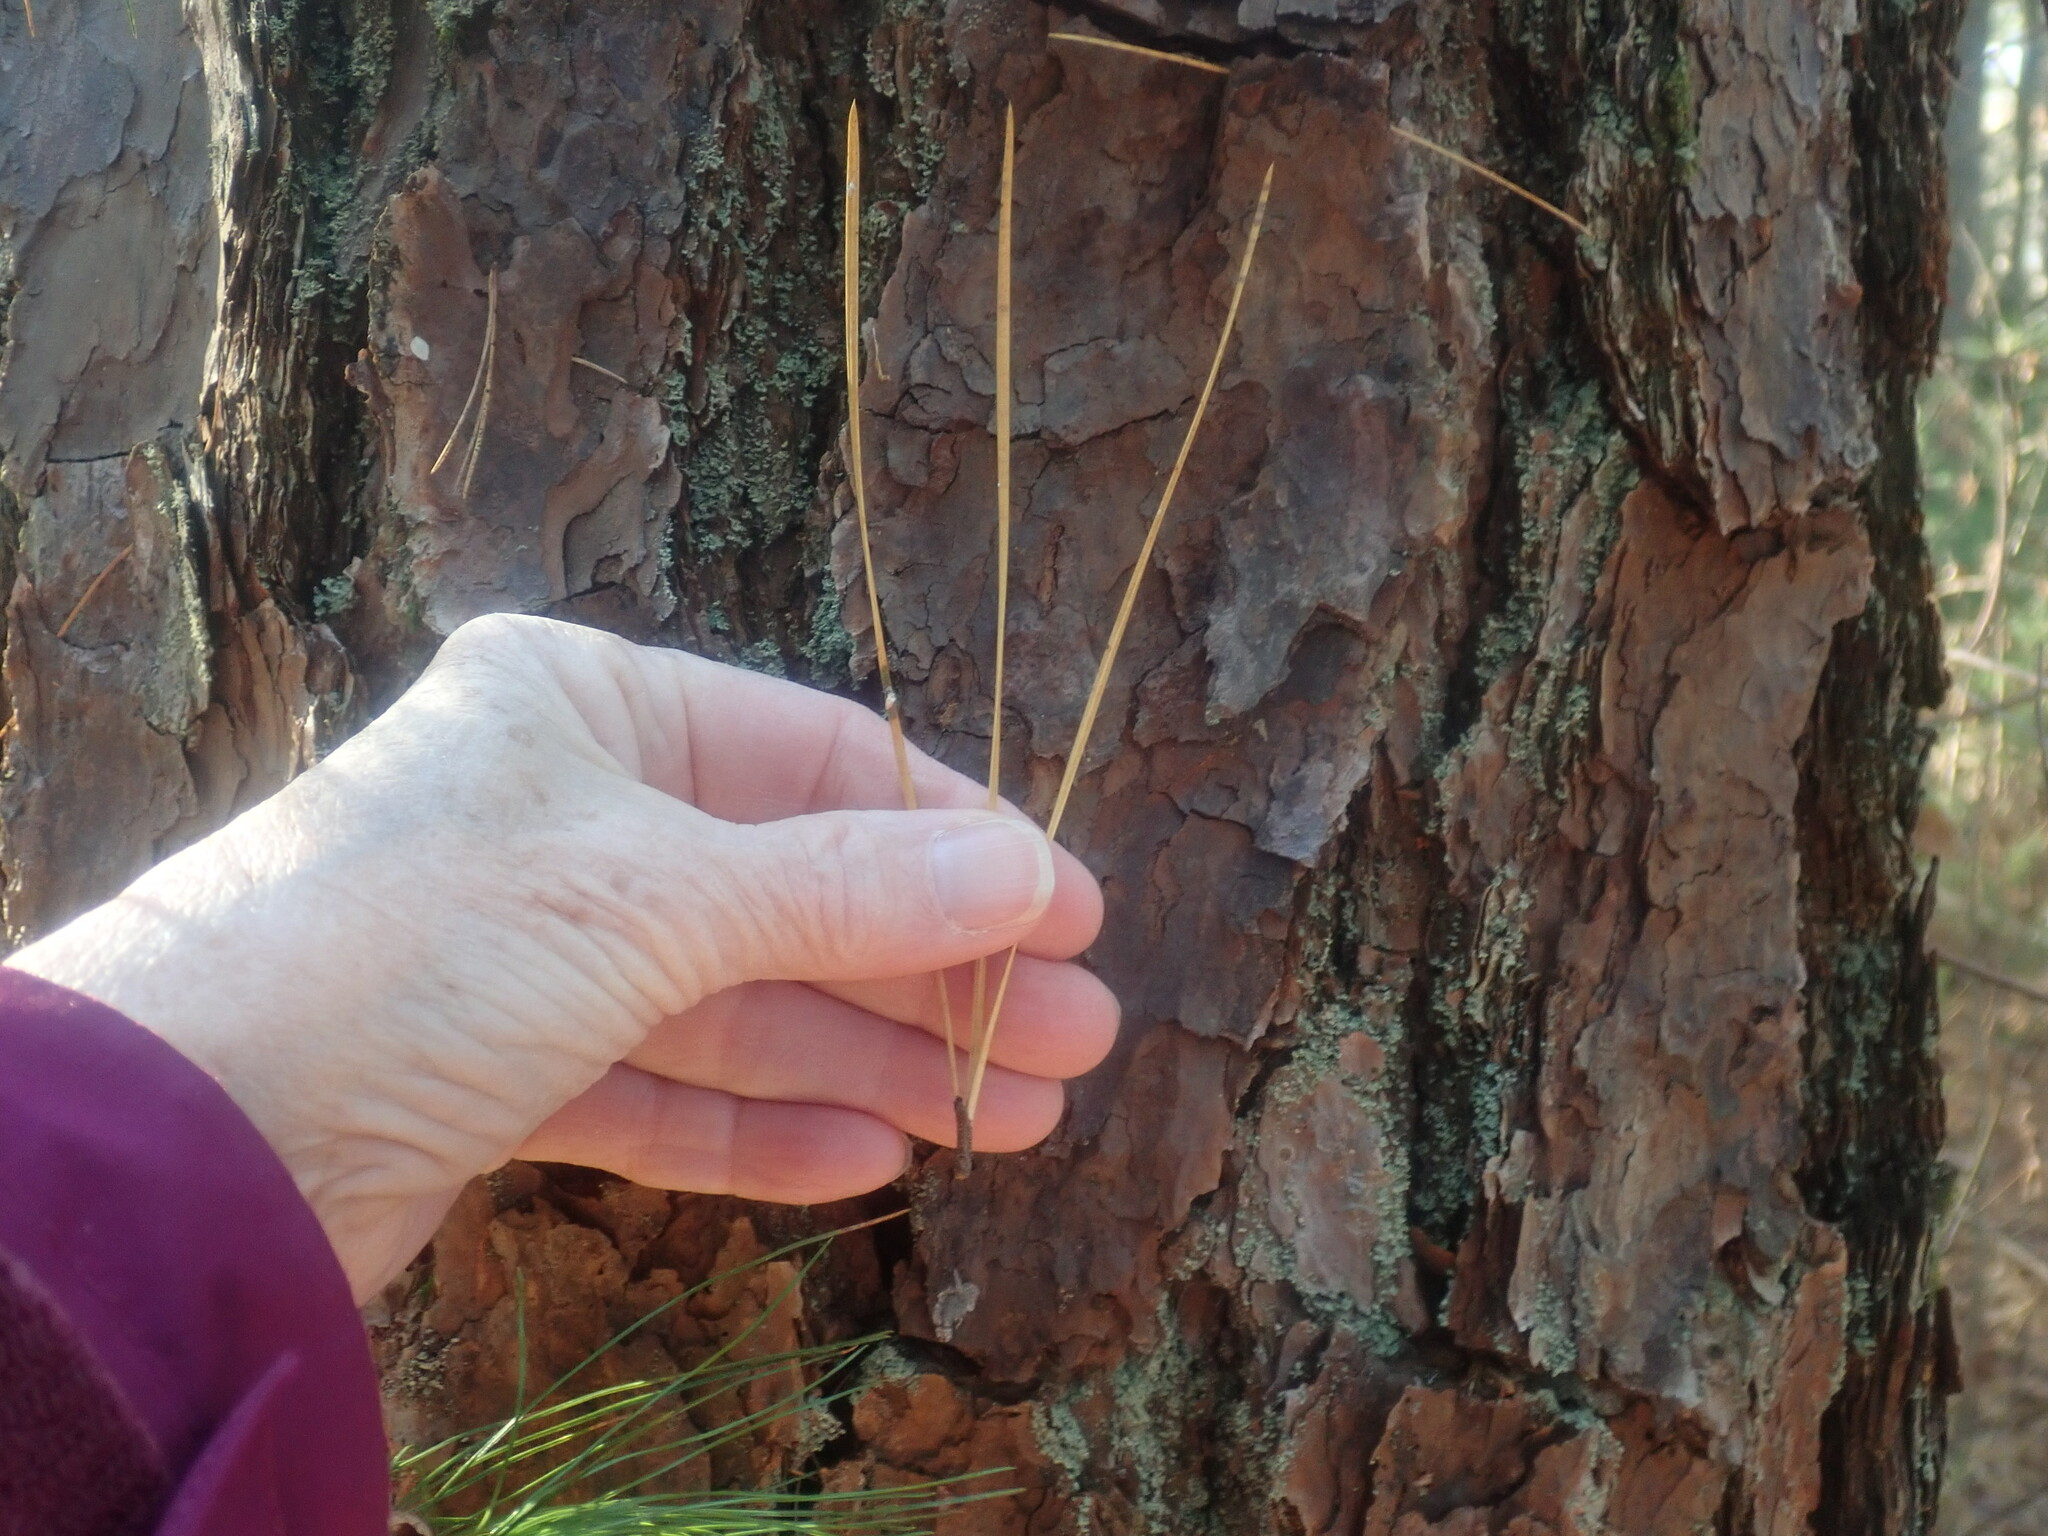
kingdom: Plantae
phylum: Tracheophyta
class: Pinopsida
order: Pinales
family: Pinaceae
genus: Pinus
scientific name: Pinus rigida
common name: Pitch pine
